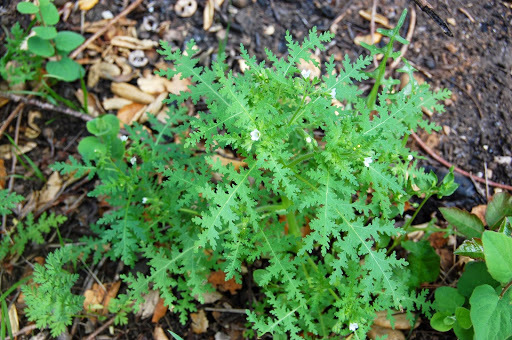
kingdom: Plantae
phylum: Tracheophyta
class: Magnoliopsida
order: Boraginales
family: Hydrophyllaceae
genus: Eucrypta
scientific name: Eucrypta chrysanthemifolia
